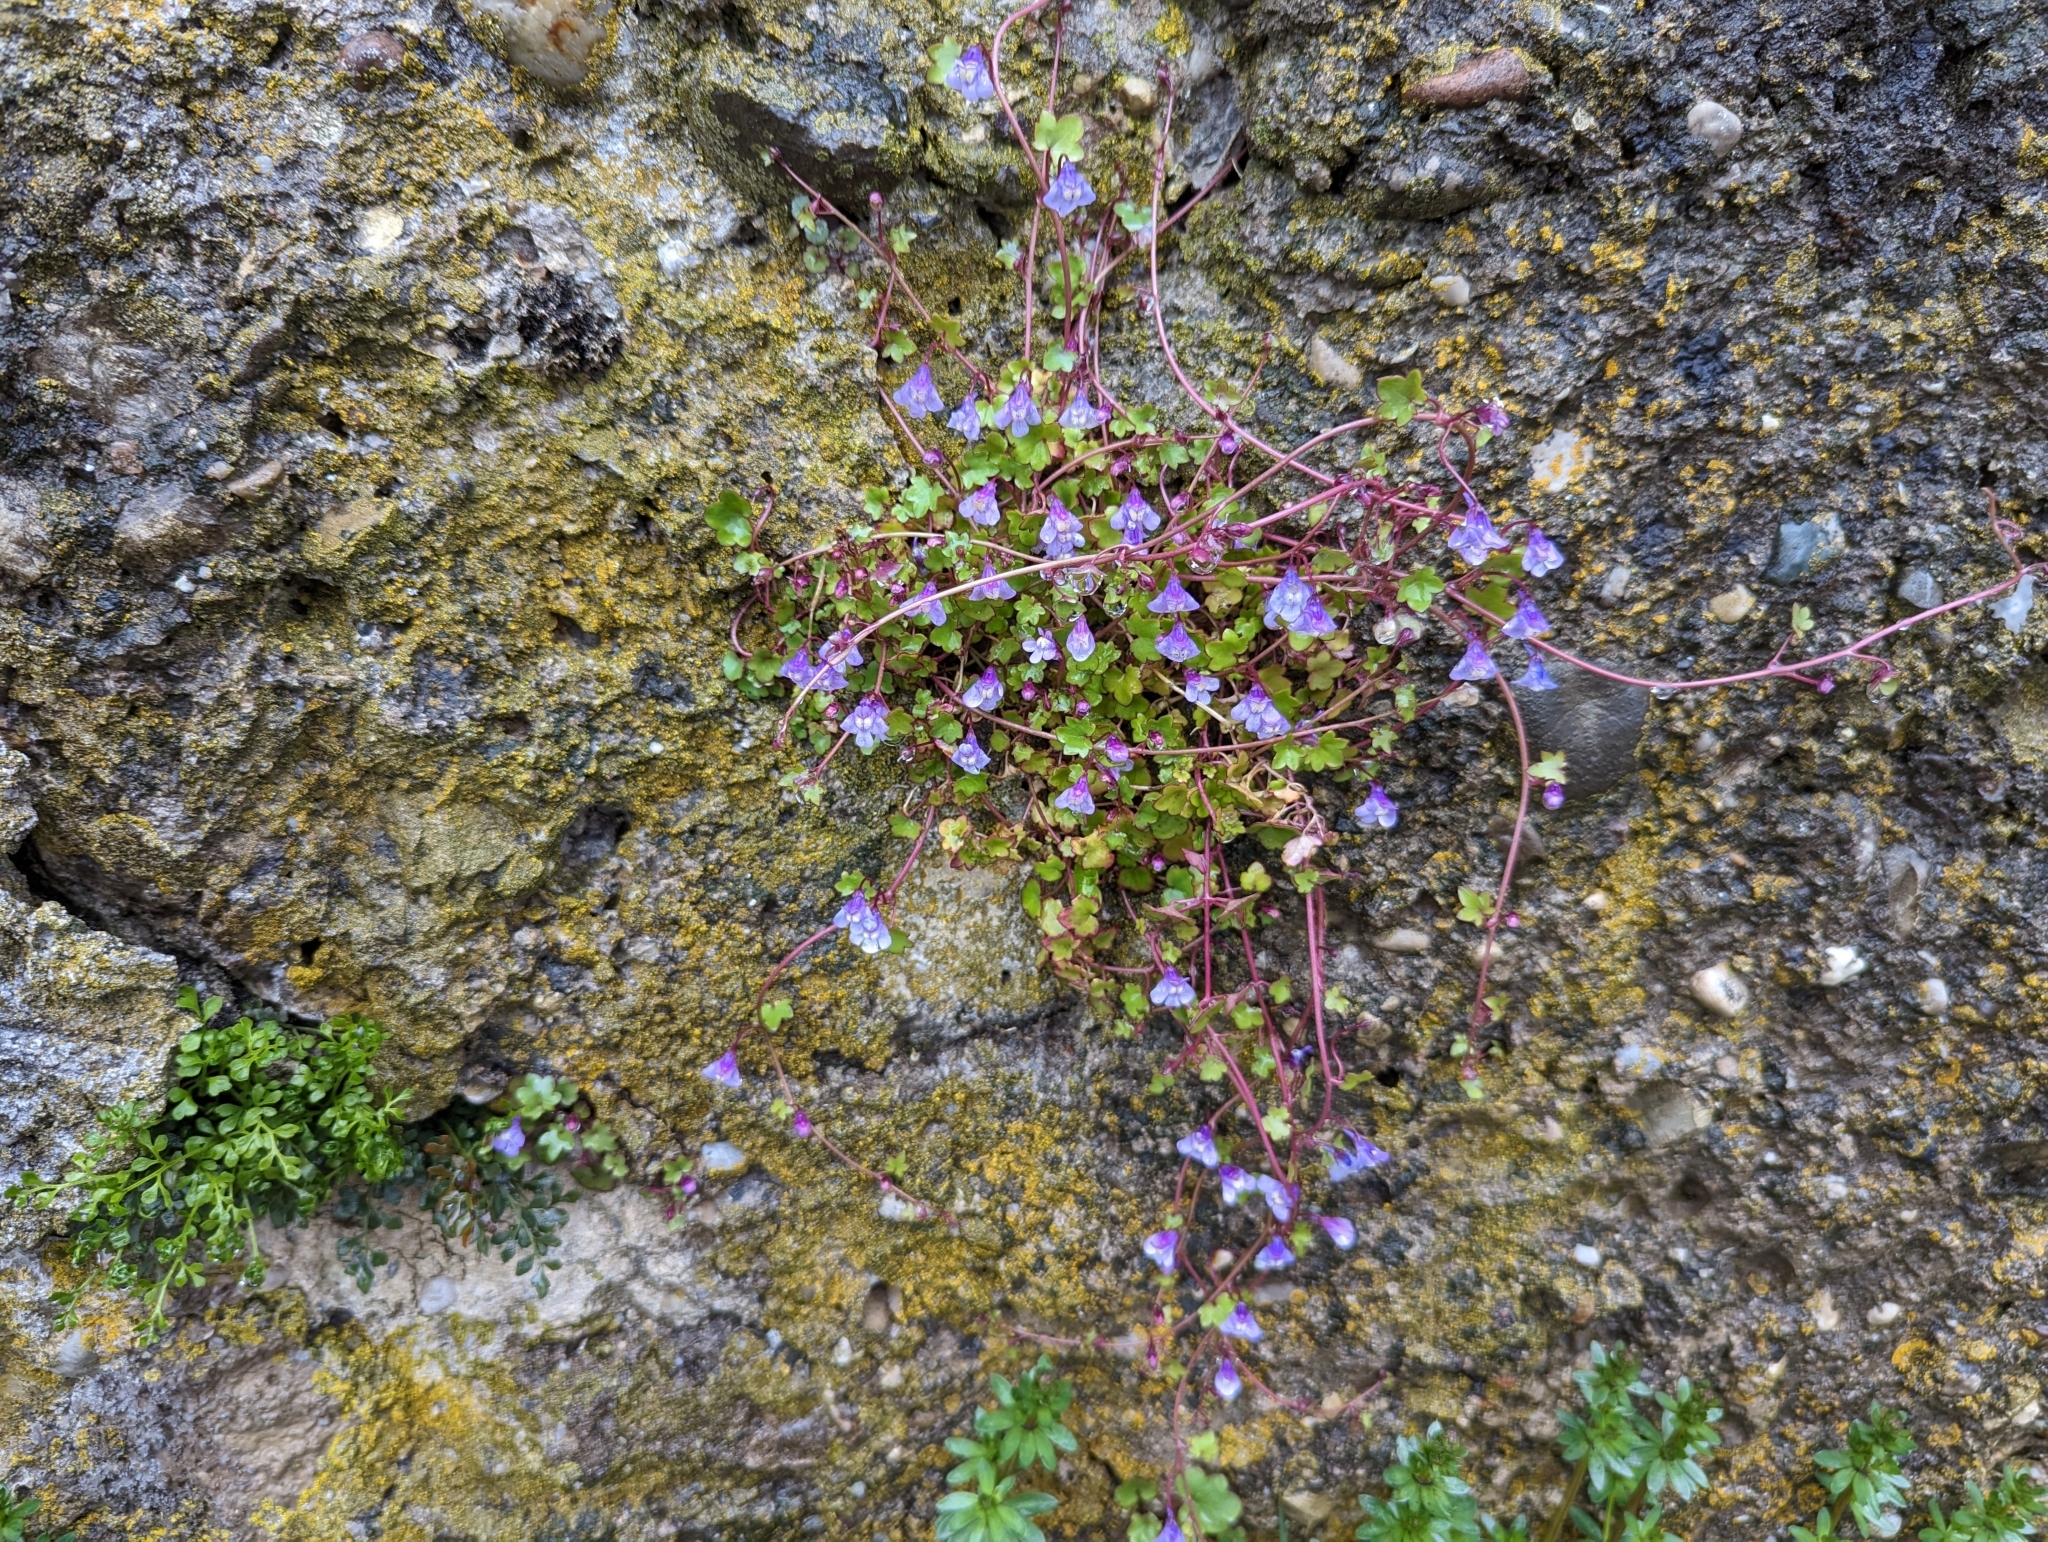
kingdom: Plantae
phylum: Tracheophyta
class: Magnoliopsida
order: Lamiales
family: Plantaginaceae
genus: Cymbalaria
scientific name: Cymbalaria muralis
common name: Ivy-leaved toadflax
